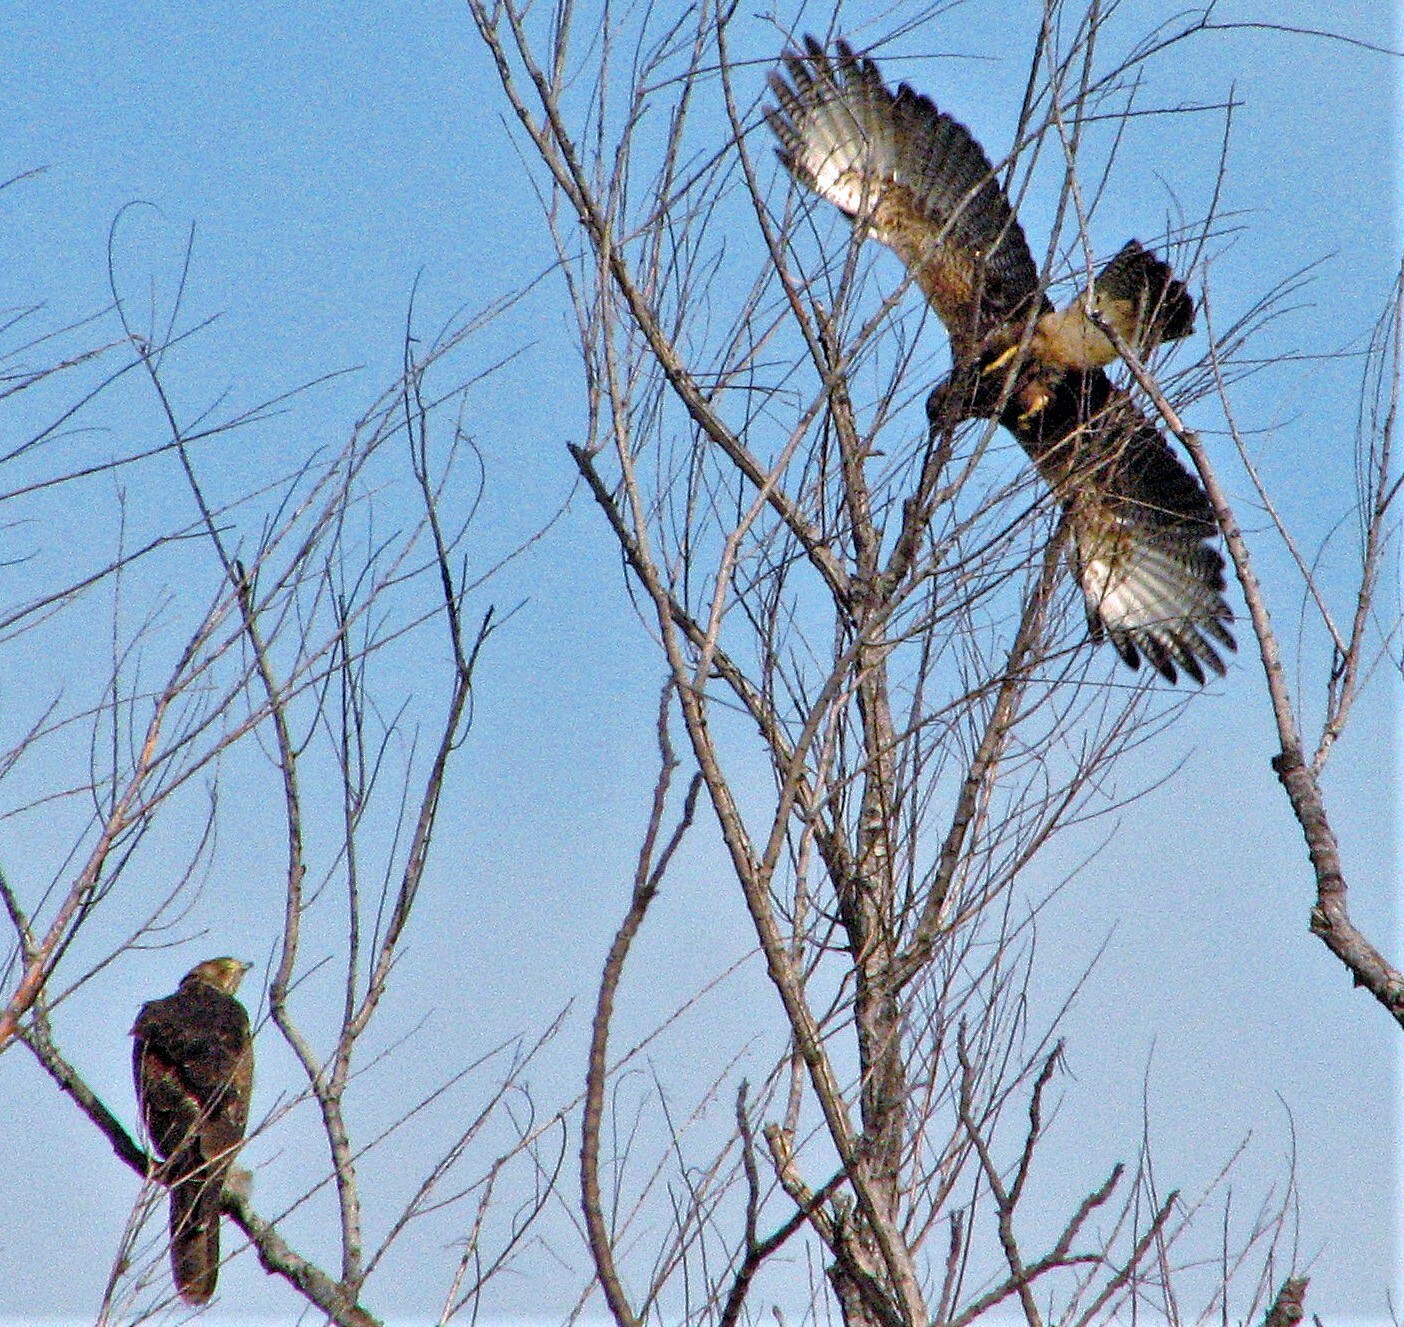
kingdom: Animalia
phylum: Chordata
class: Aves
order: Accipitriformes
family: Accipitridae
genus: Parabuteo
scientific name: Parabuteo unicinctus
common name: Harris's hawk
